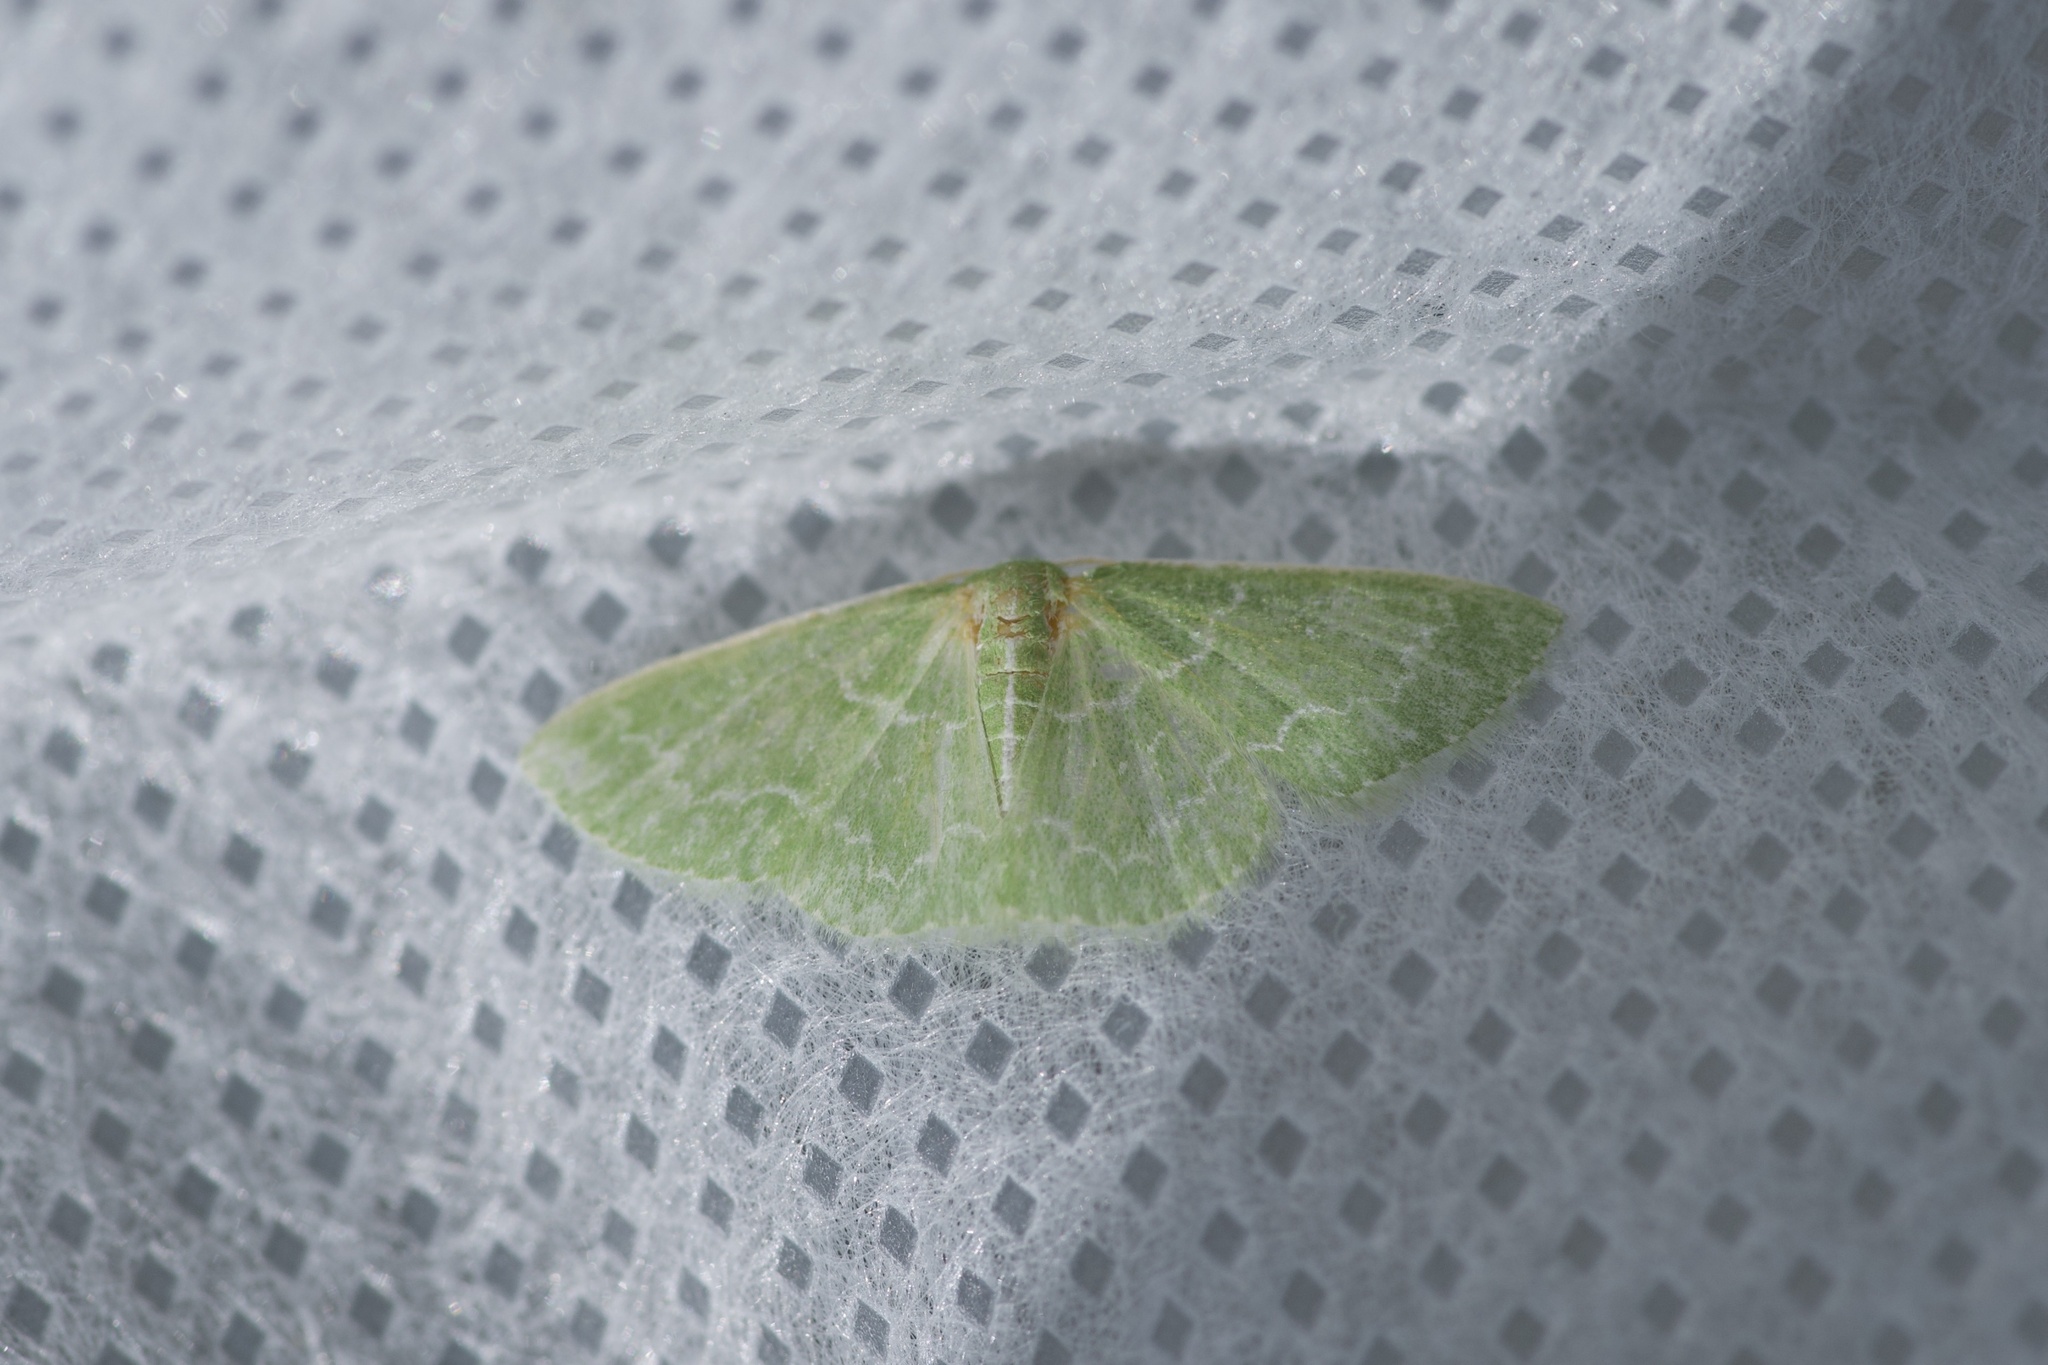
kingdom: Animalia
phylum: Arthropoda
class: Insecta
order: Lepidoptera
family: Geometridae
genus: Synchlora
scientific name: Synchlora frondaria
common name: Southern emerald
